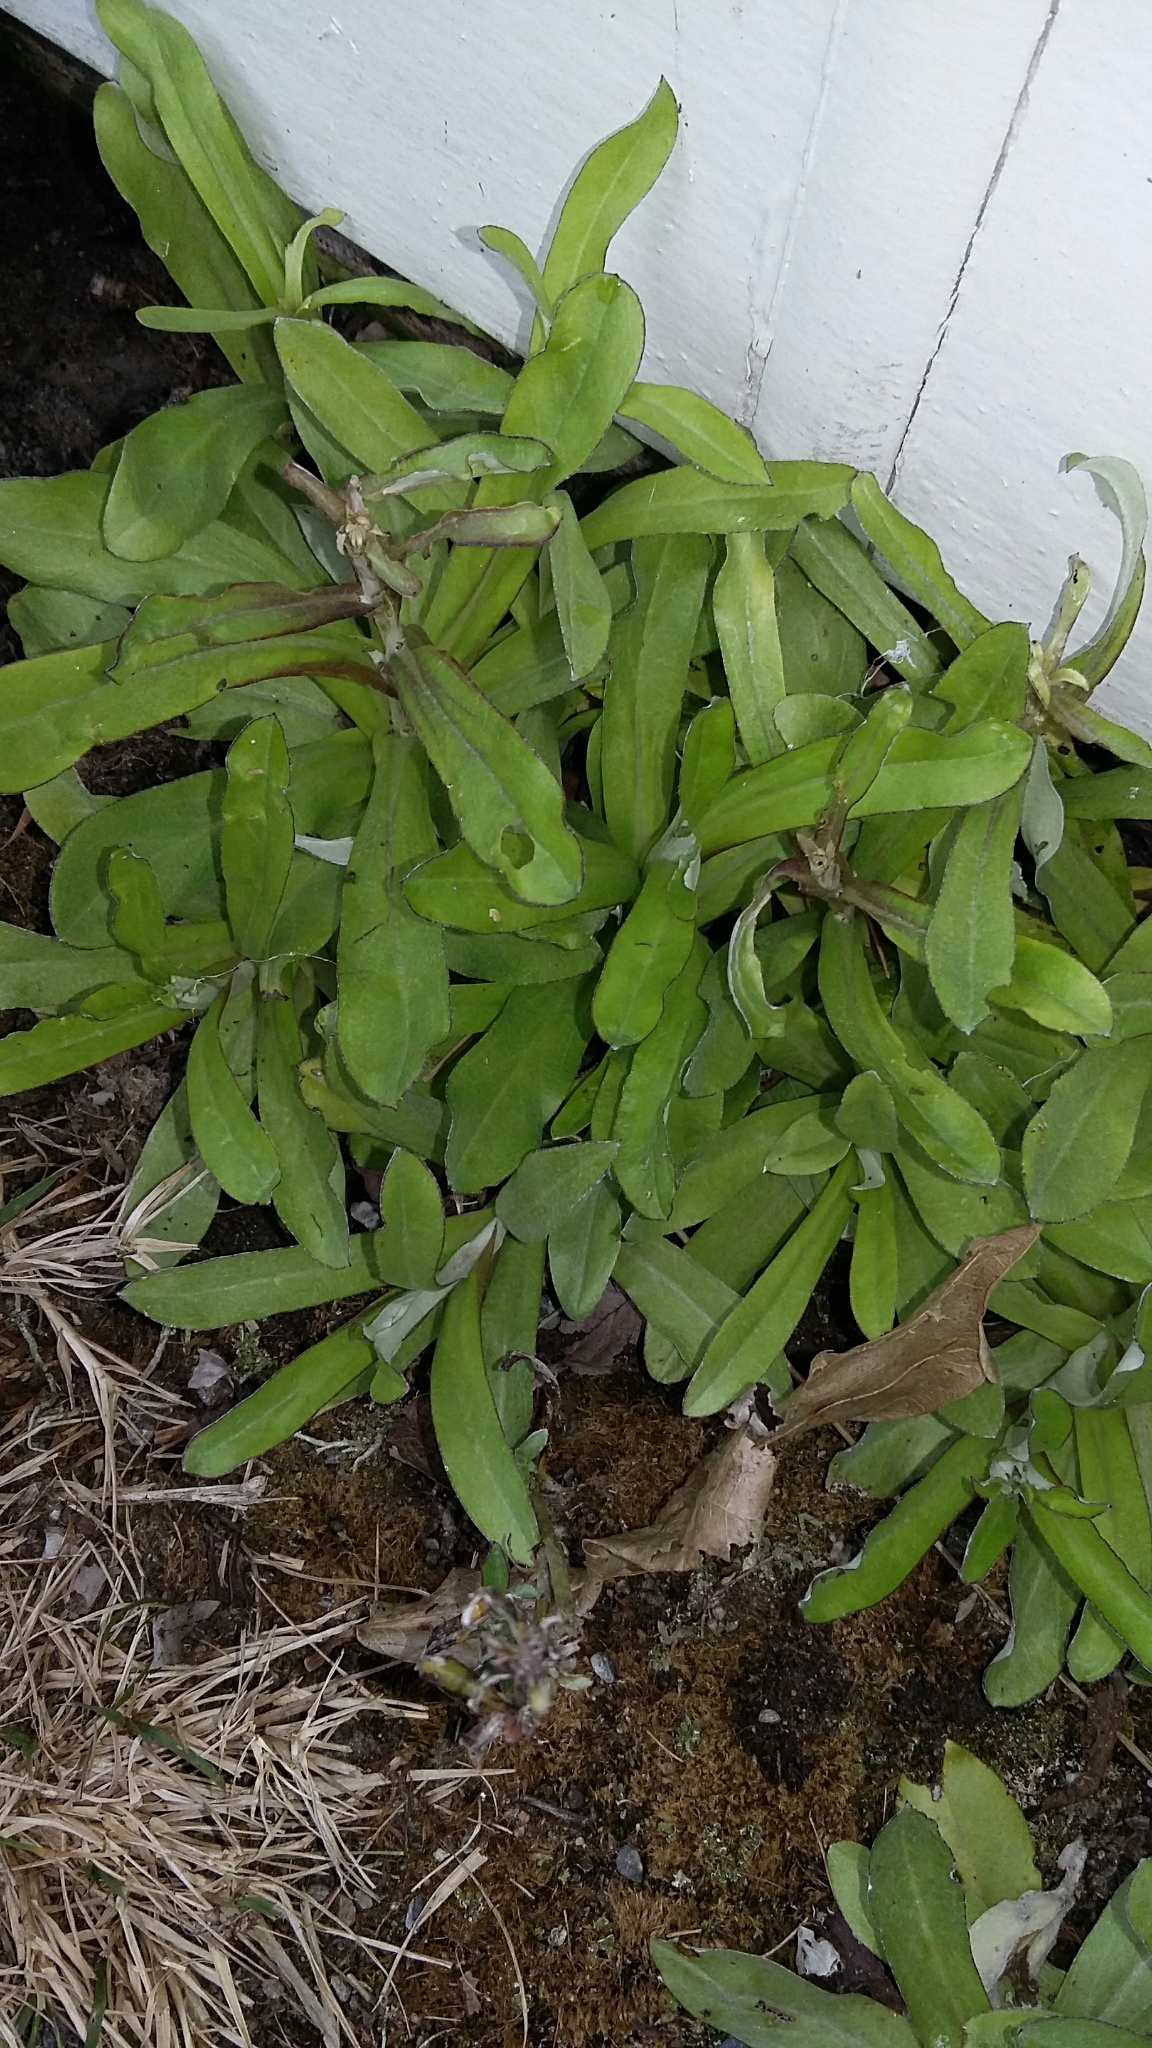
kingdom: Plantae
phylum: Tracheophyta
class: Magnoliopsida
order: Asterales
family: Asteraceae
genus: Gamochaeta
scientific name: Gamochaeta americana
